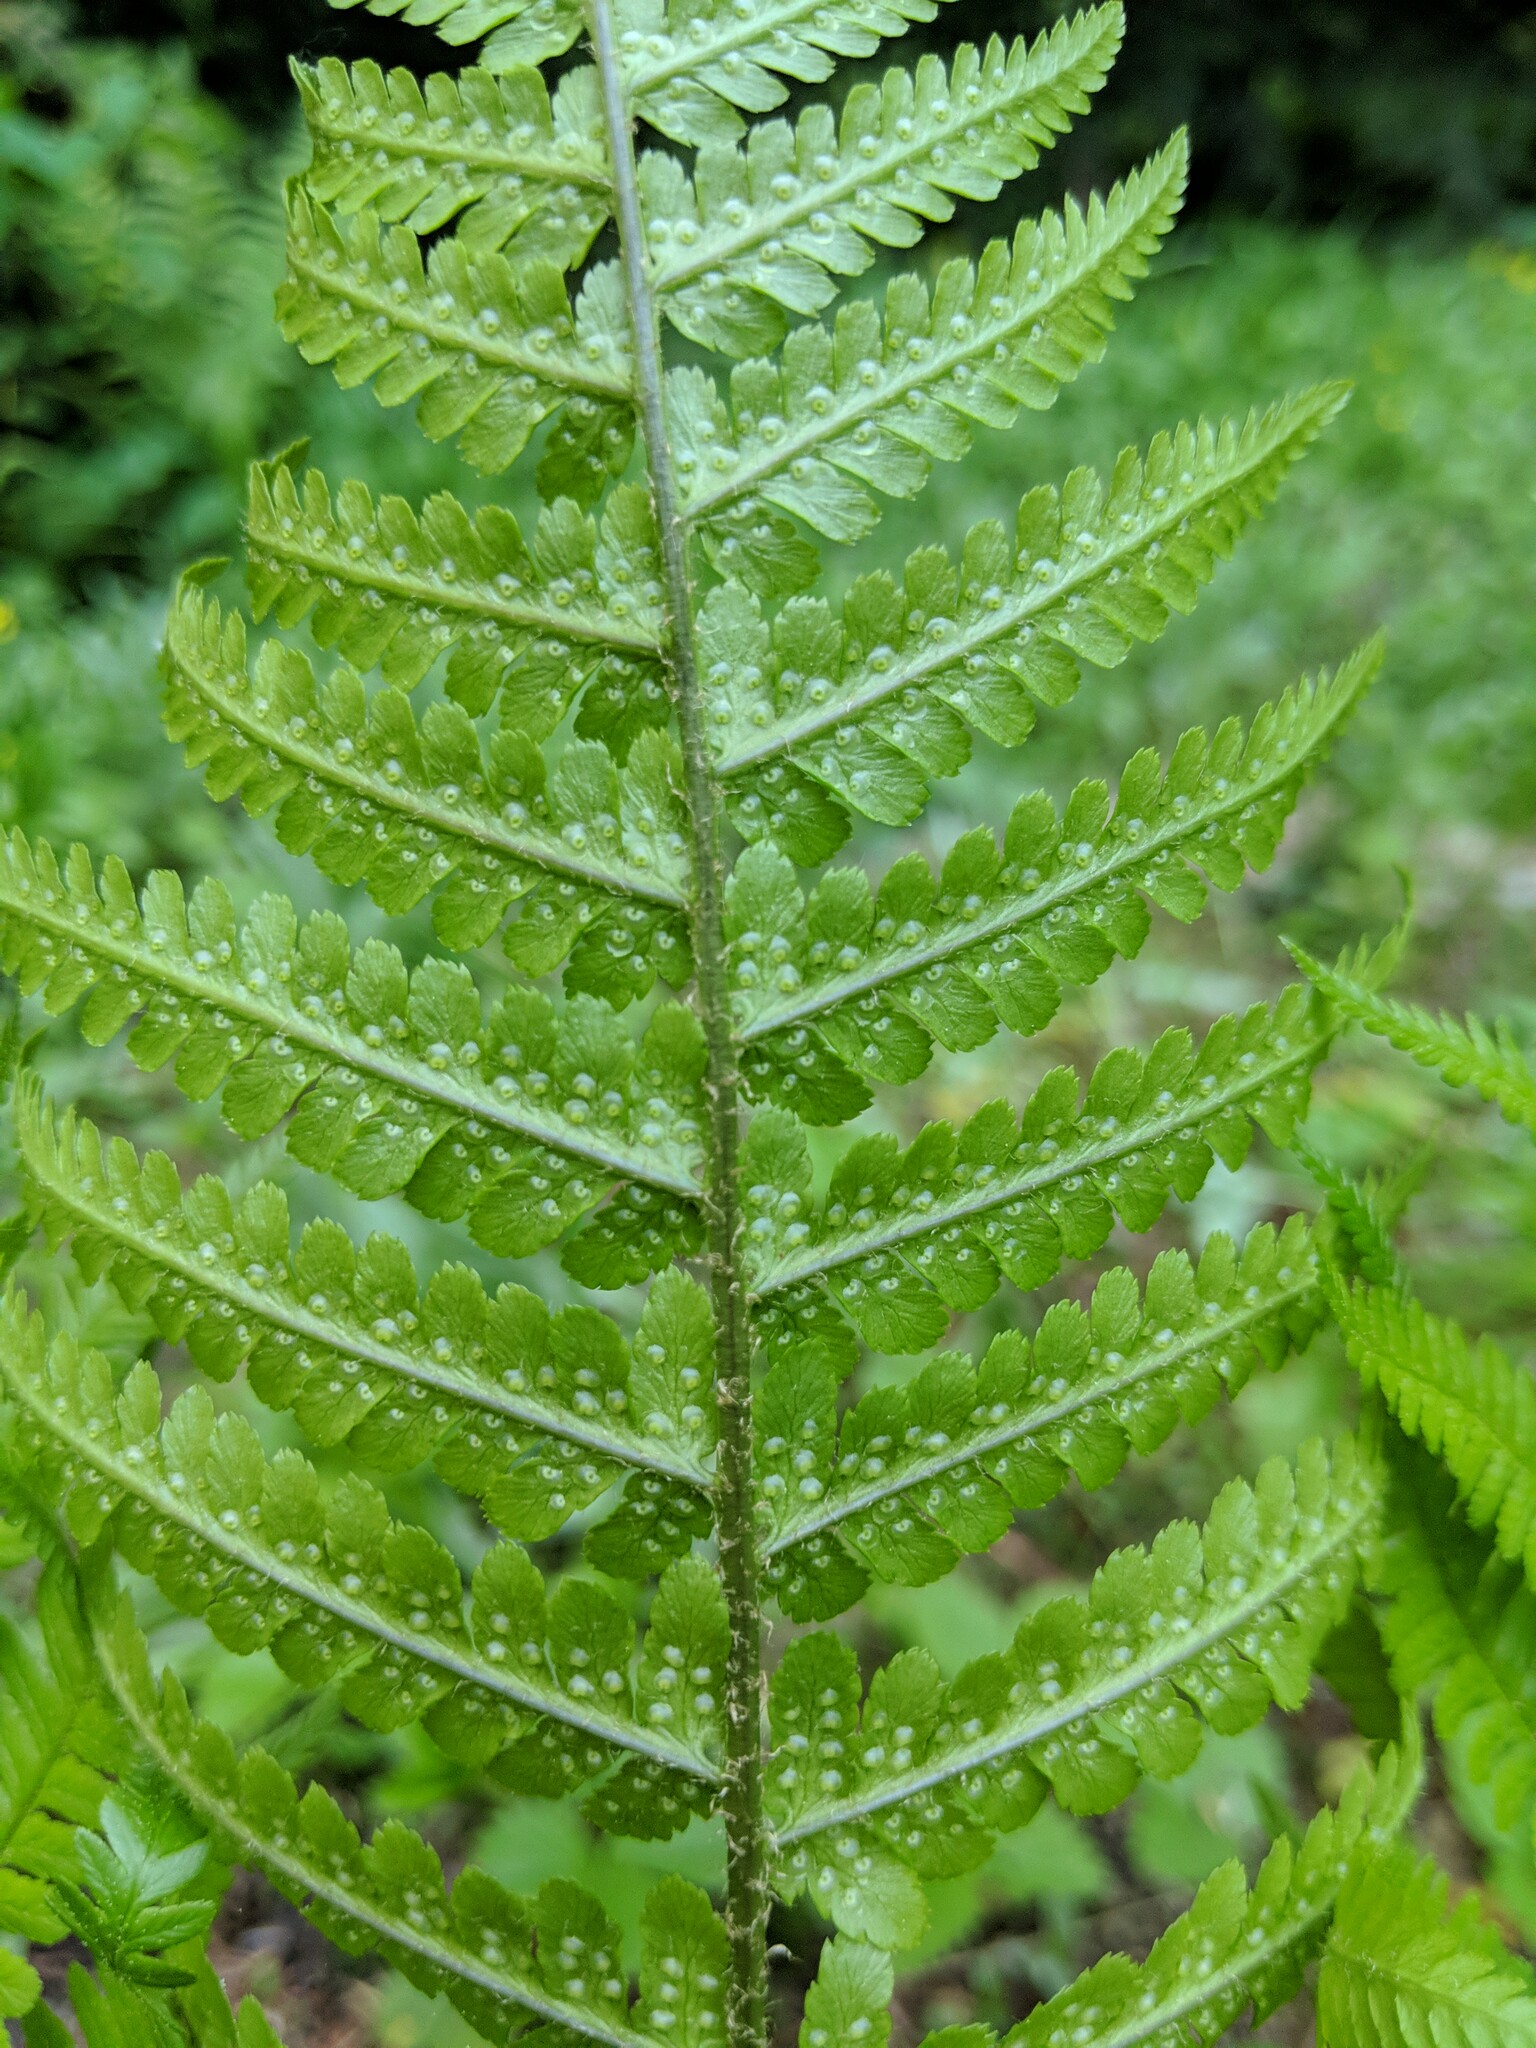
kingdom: Plantae
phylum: Tracheophyta
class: Polypodiopsida
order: Polypodiales
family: Dryopteridaceae
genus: Dryopteris
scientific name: Dryopteris filix-mas
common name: Male fern
